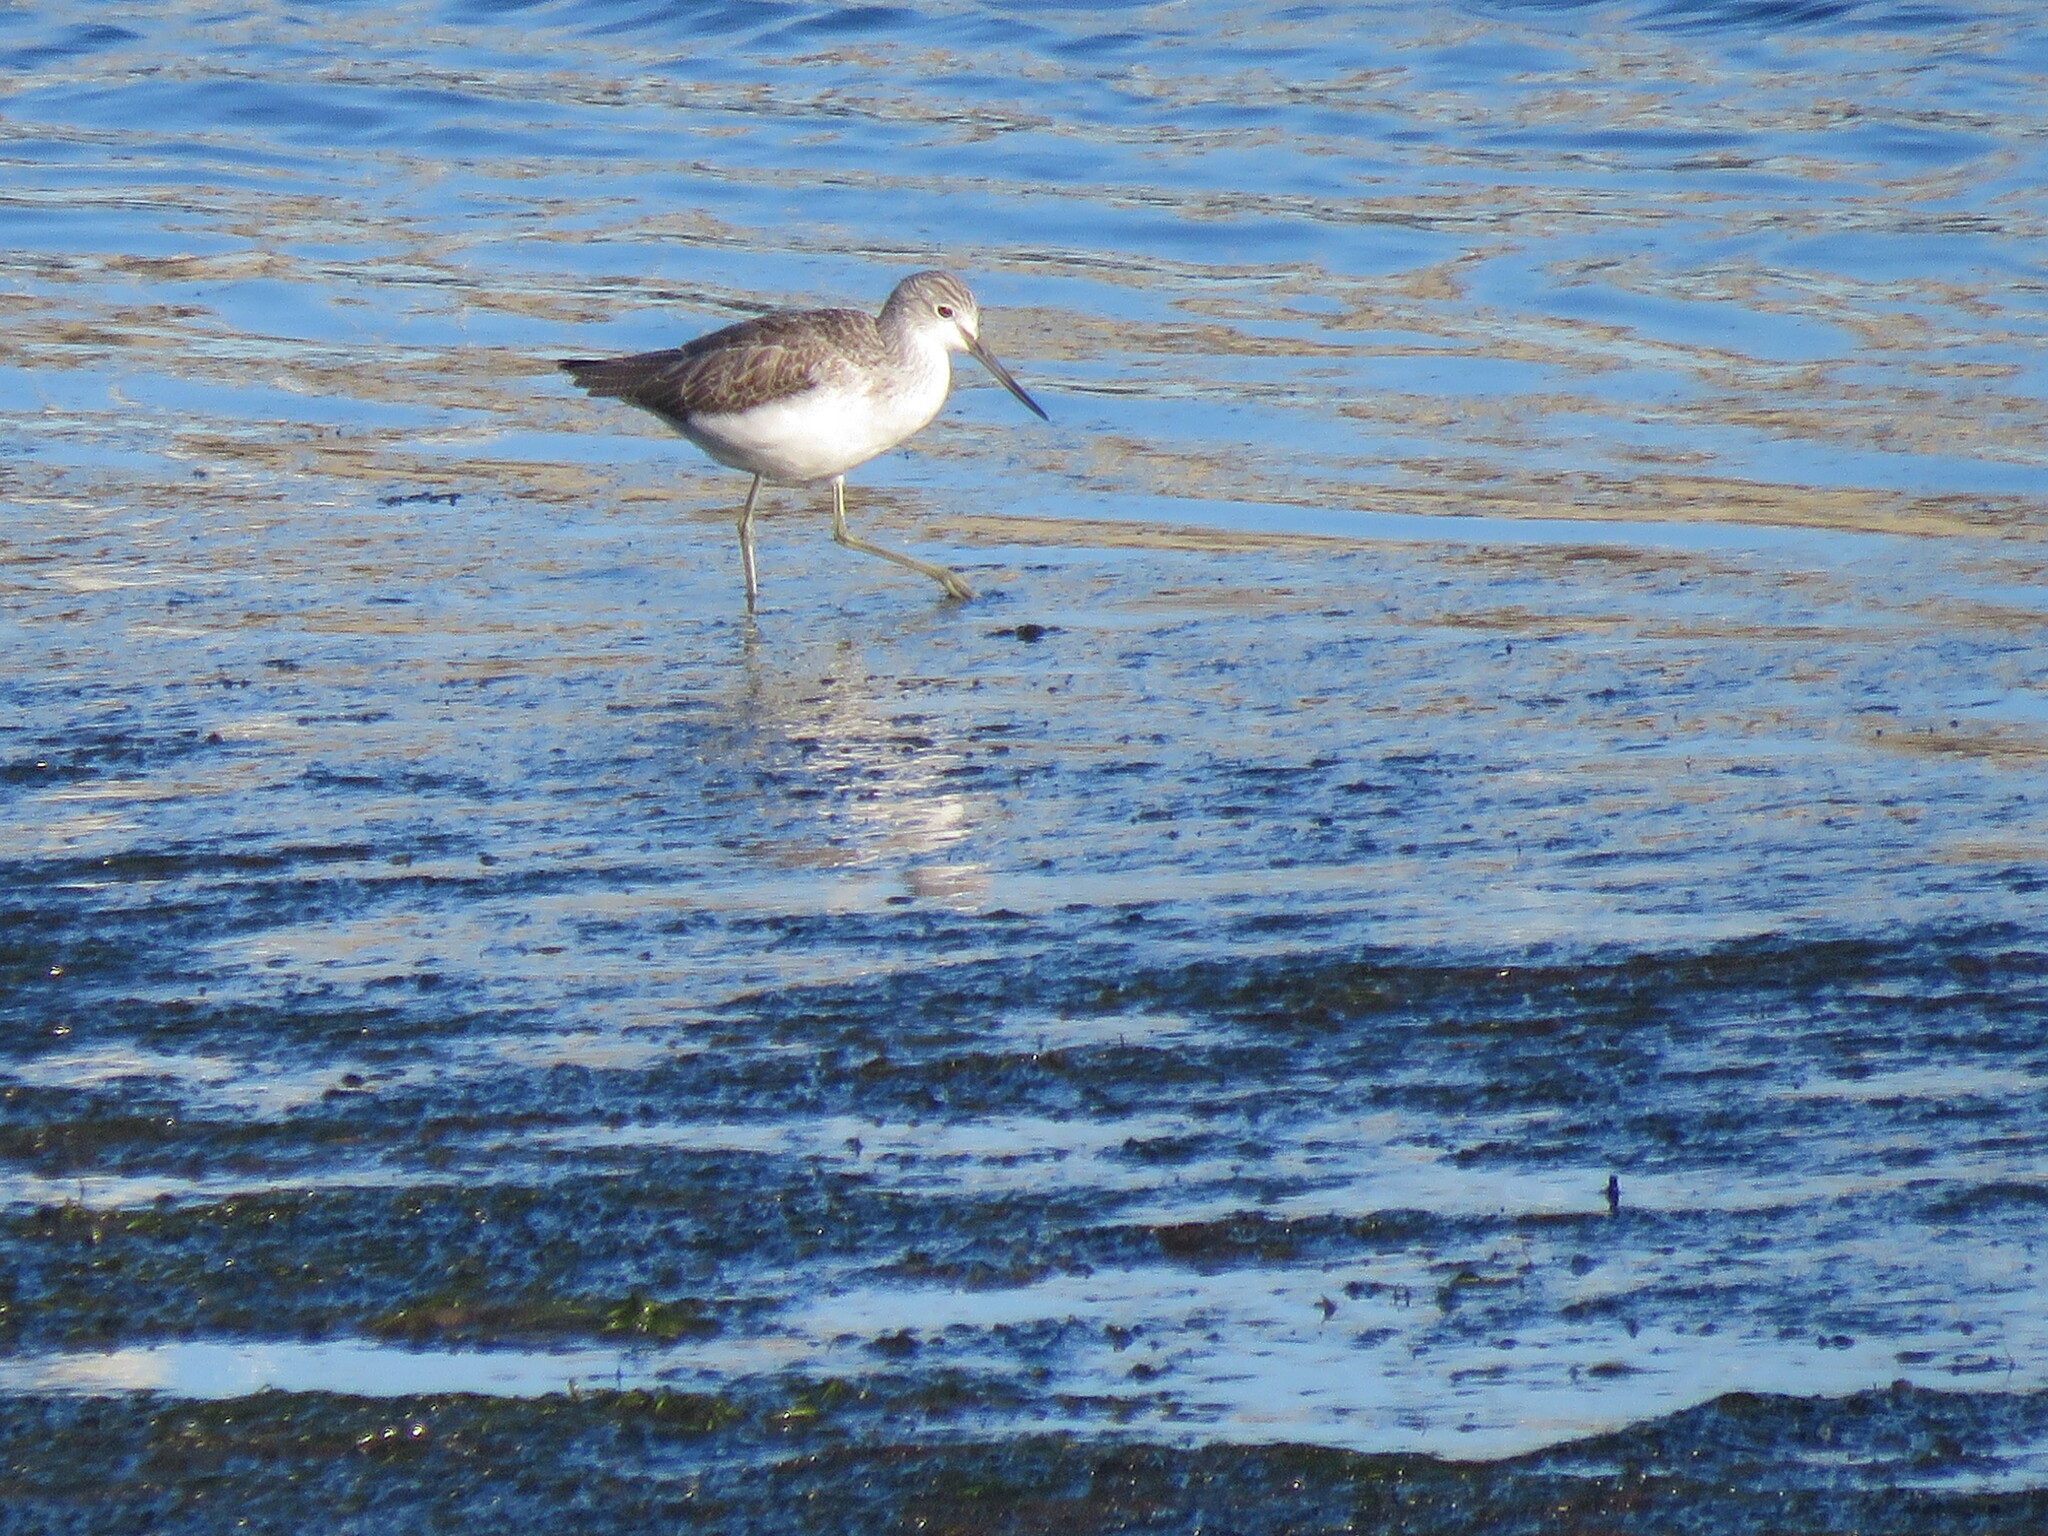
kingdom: Animalia
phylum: Chordata
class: Aves
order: Charadriiformes
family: Scolopacidae
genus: Tringa
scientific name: Tringa nebularia
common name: Common greenshank
